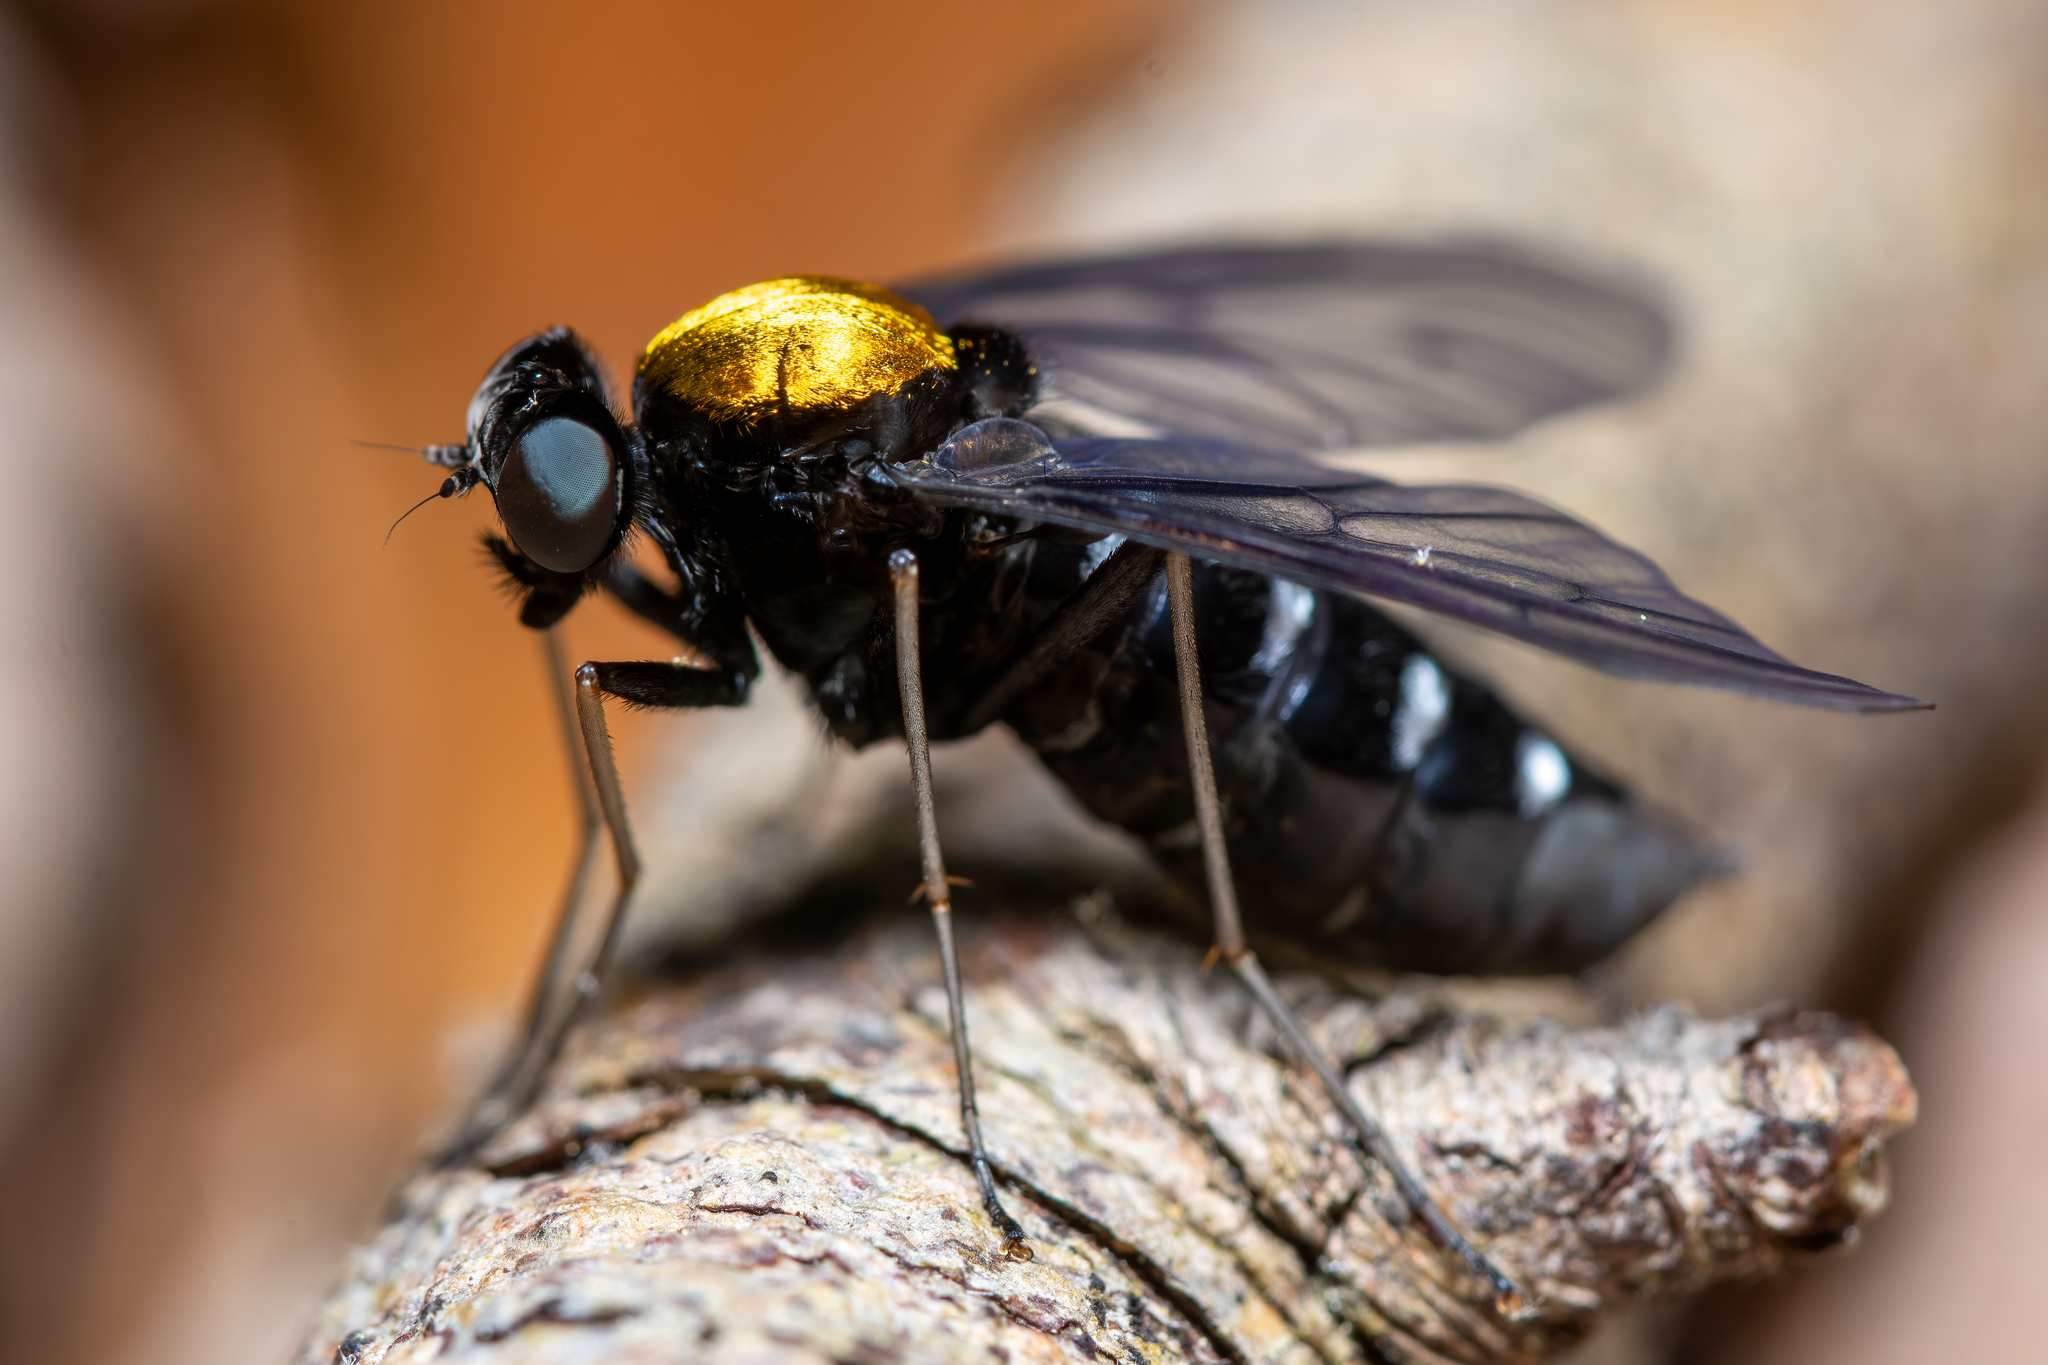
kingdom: Animalia
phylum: Arthropoda
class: Insecta
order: Diptera
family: Rhagionidae
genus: Chrysopilus
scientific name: Chrysopilus thoracicus
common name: Golden-backed snipe fly
